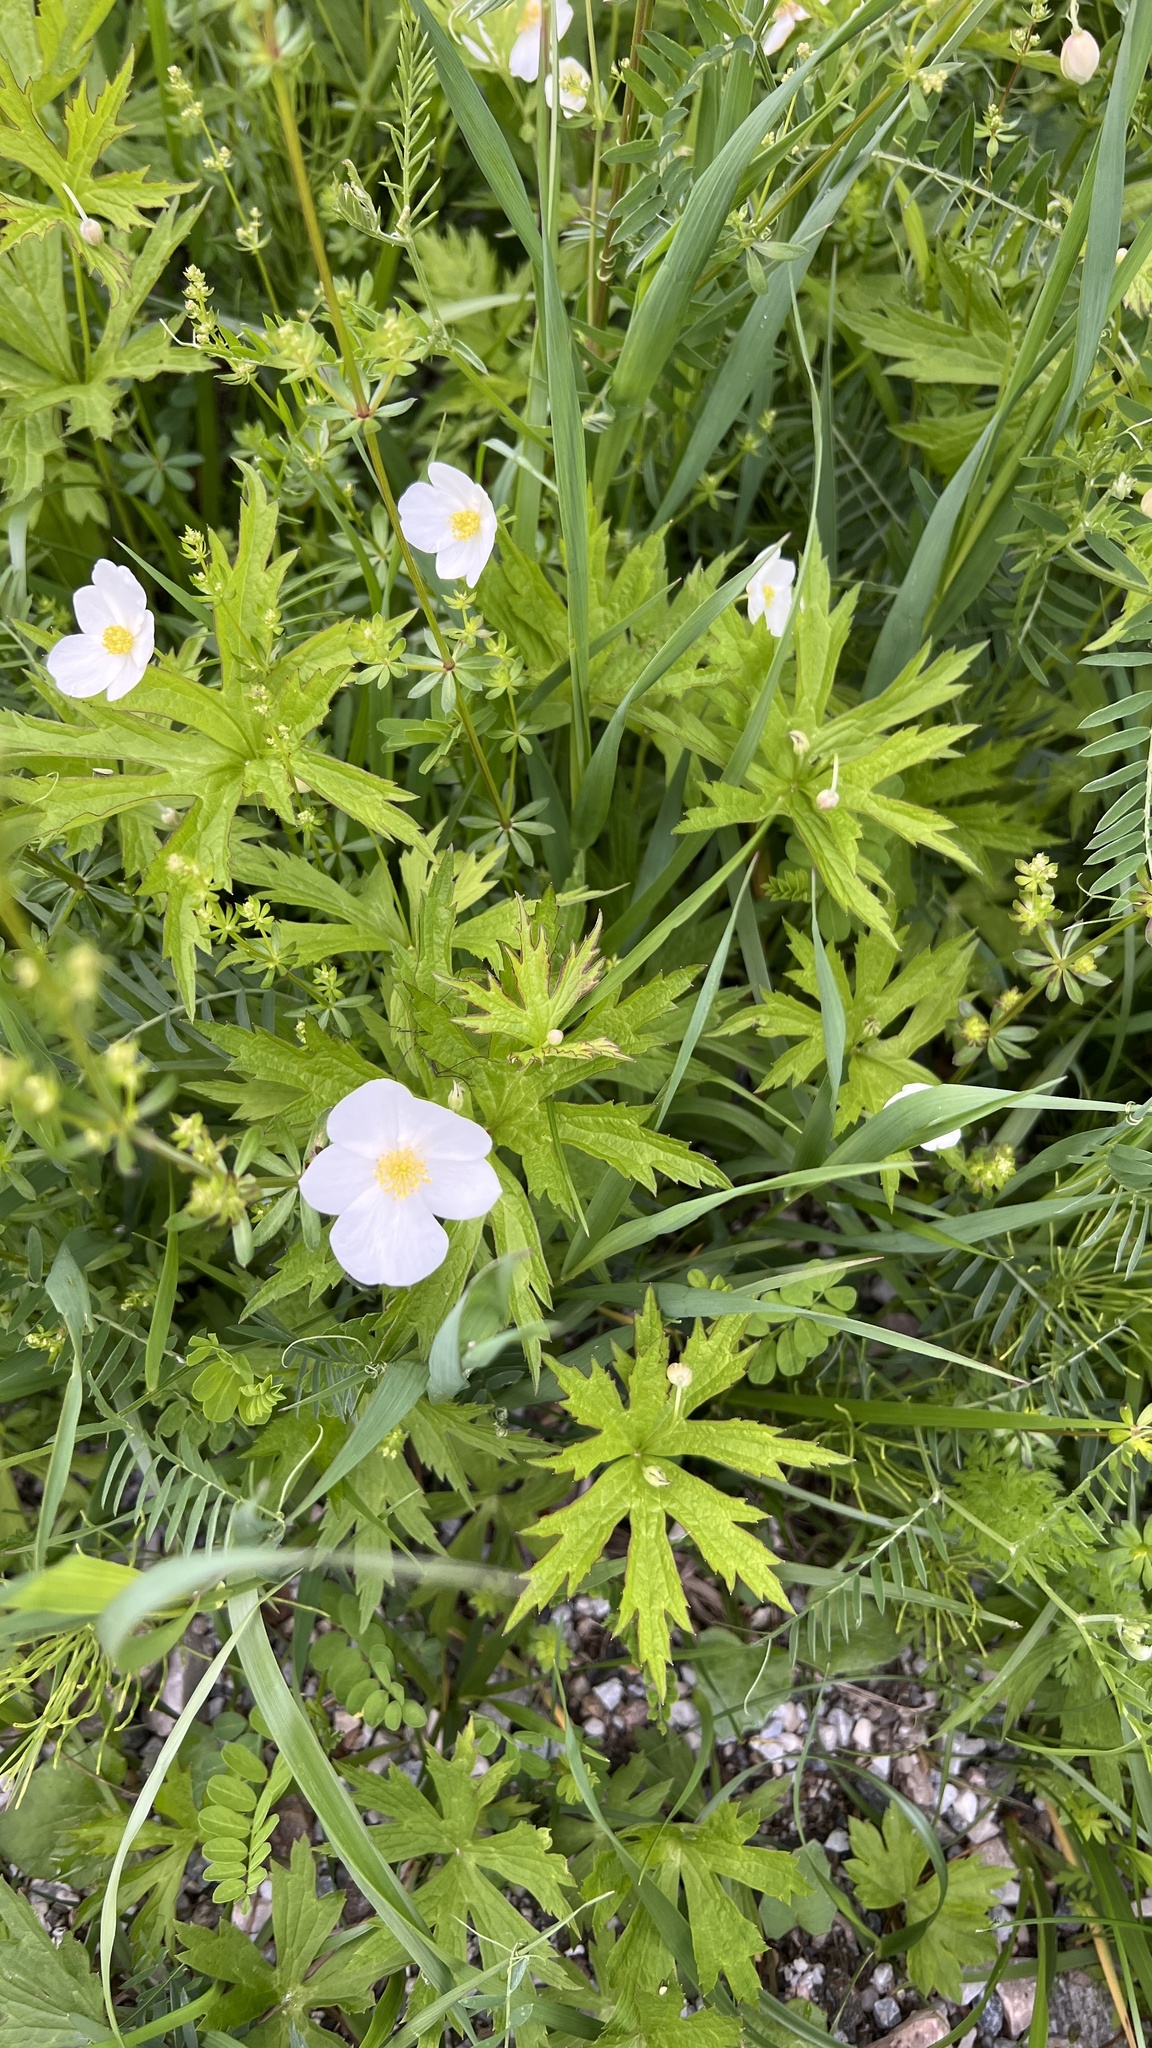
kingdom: Plantae
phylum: Tracheophyta
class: Magnoliopsida
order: Ranunculales
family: Ranunculaceae
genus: Anemonastrum
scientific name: Anemonastrum canadense
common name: Canada anemone
